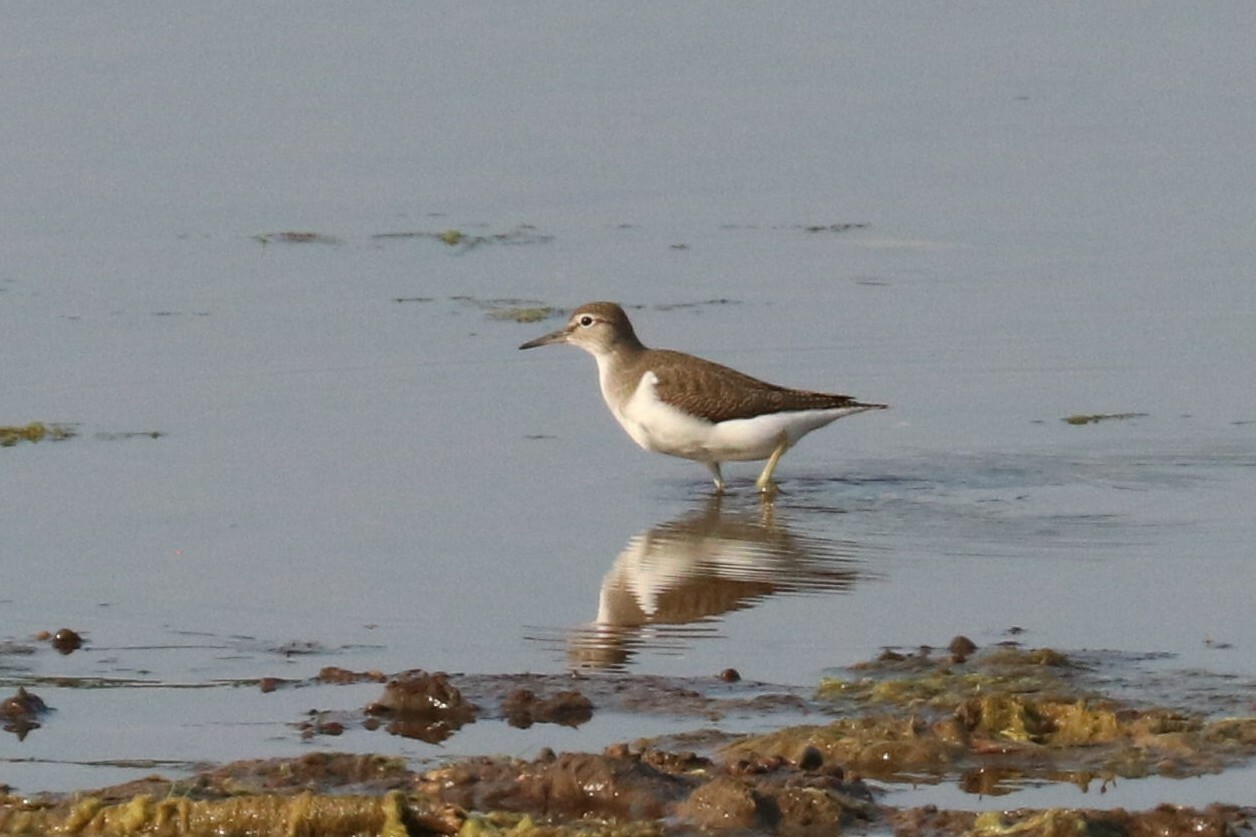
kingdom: Animalia
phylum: Chordata
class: Aves
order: Charadriiformes
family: Scolopacidae
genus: Actitis
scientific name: Actitis hypoleucos
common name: Common sandpiper
